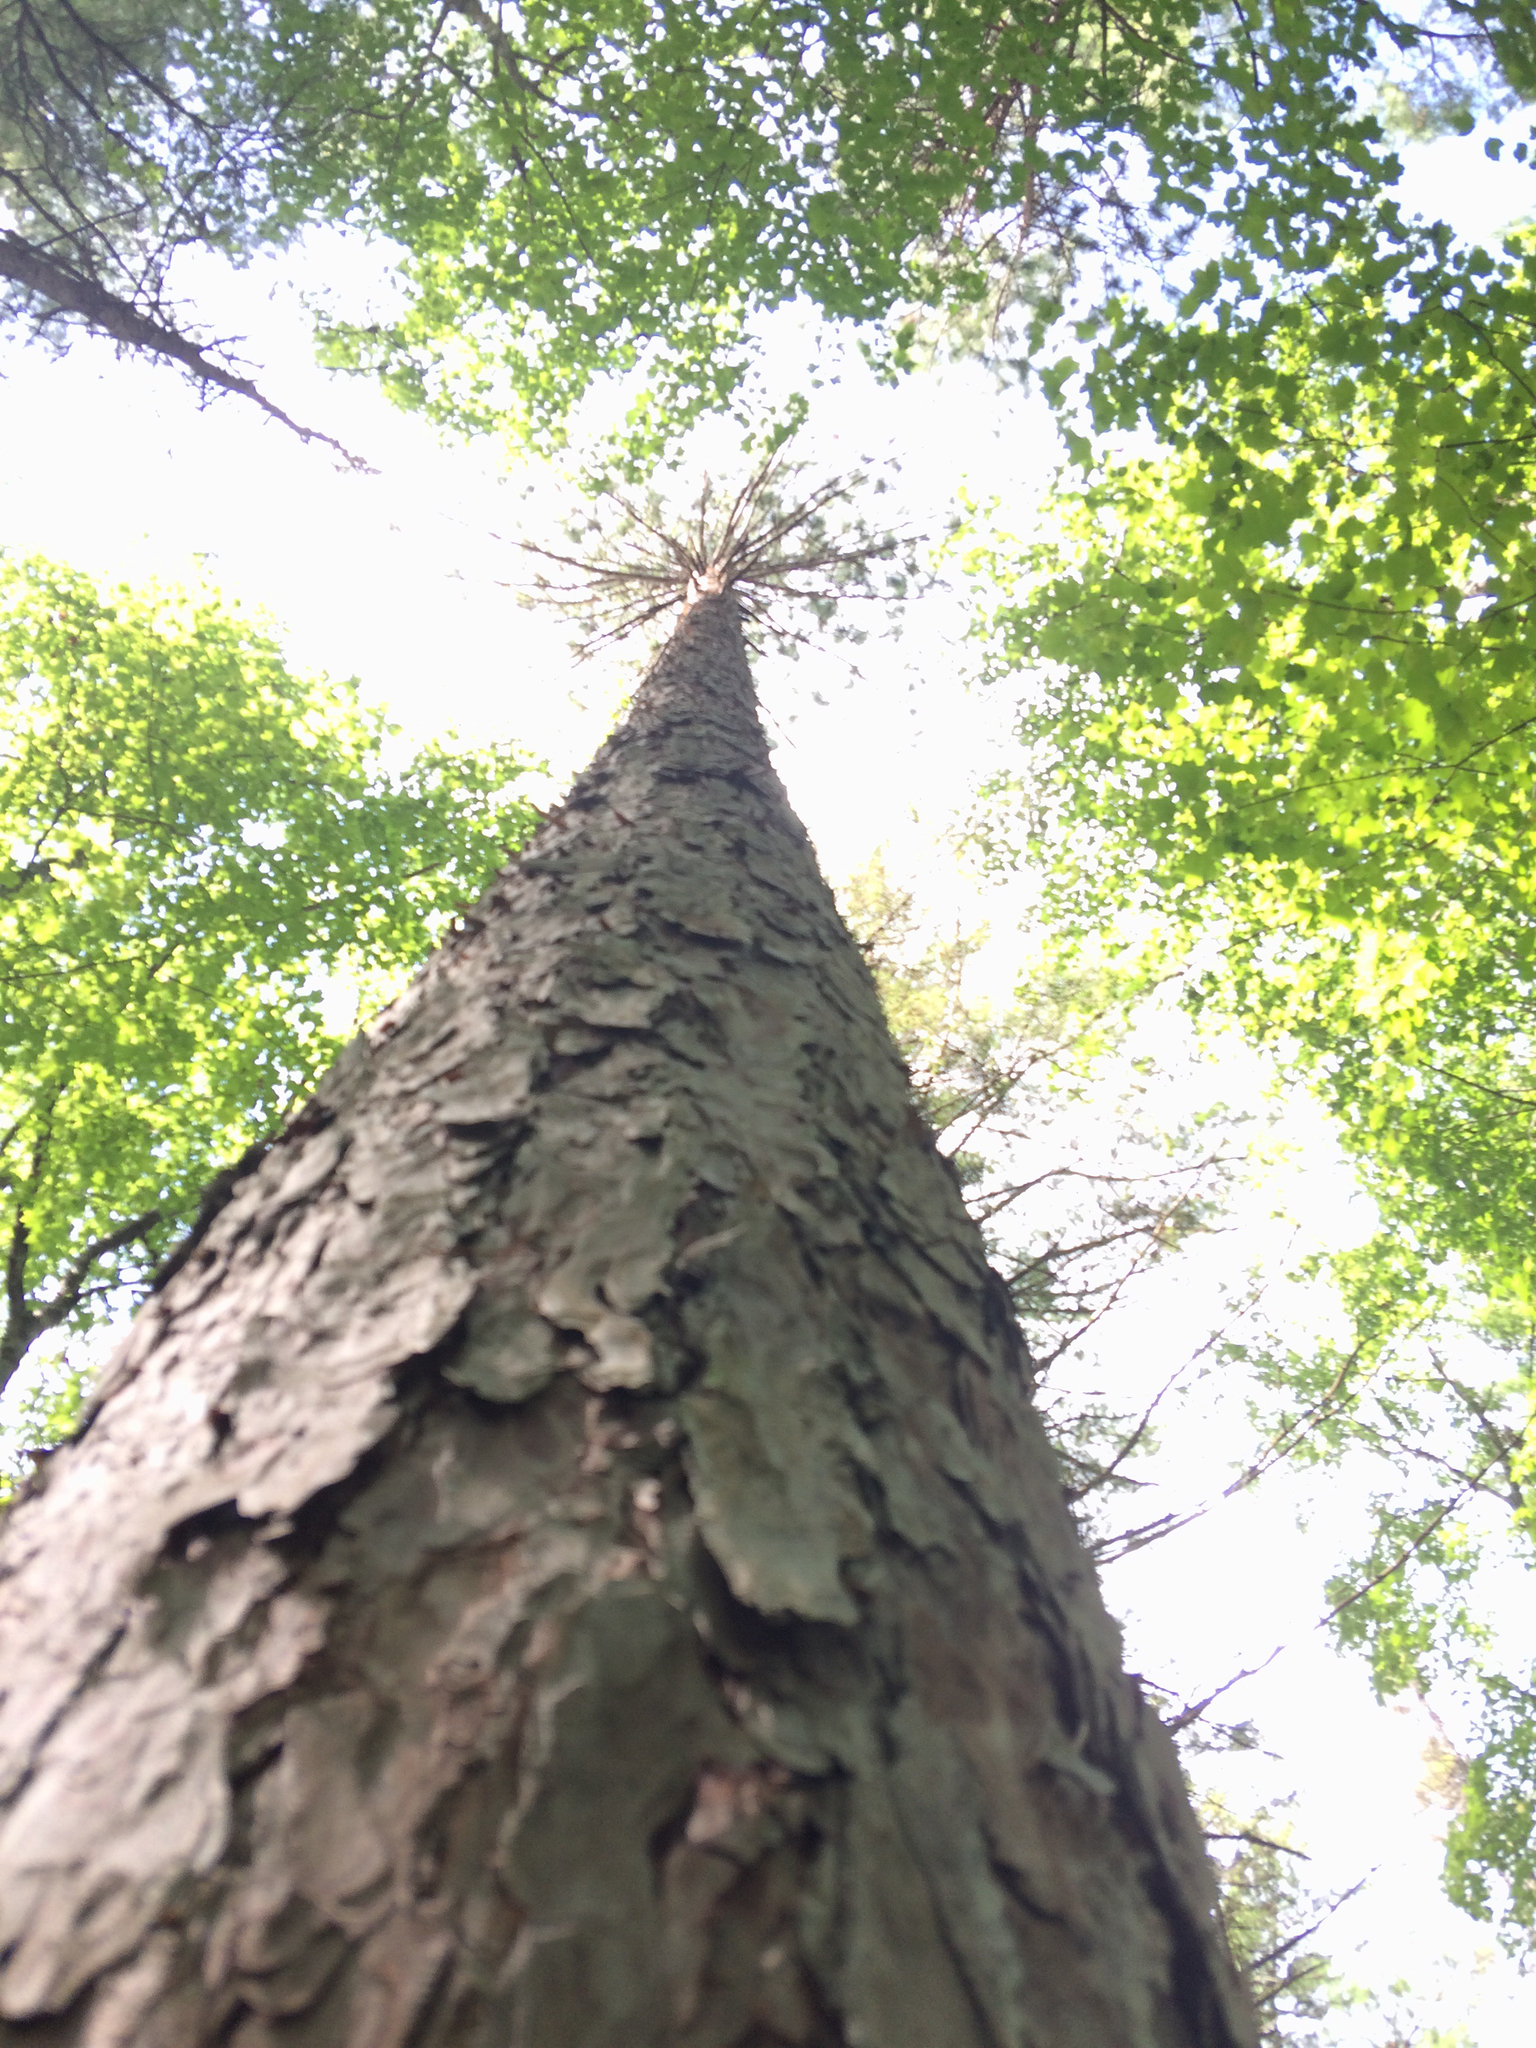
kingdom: Plantae
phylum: Tracheophyta
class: Pinopsida
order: Pinales
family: Pinaceae
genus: Pinus
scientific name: Pinus resinosa
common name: Norway pine
